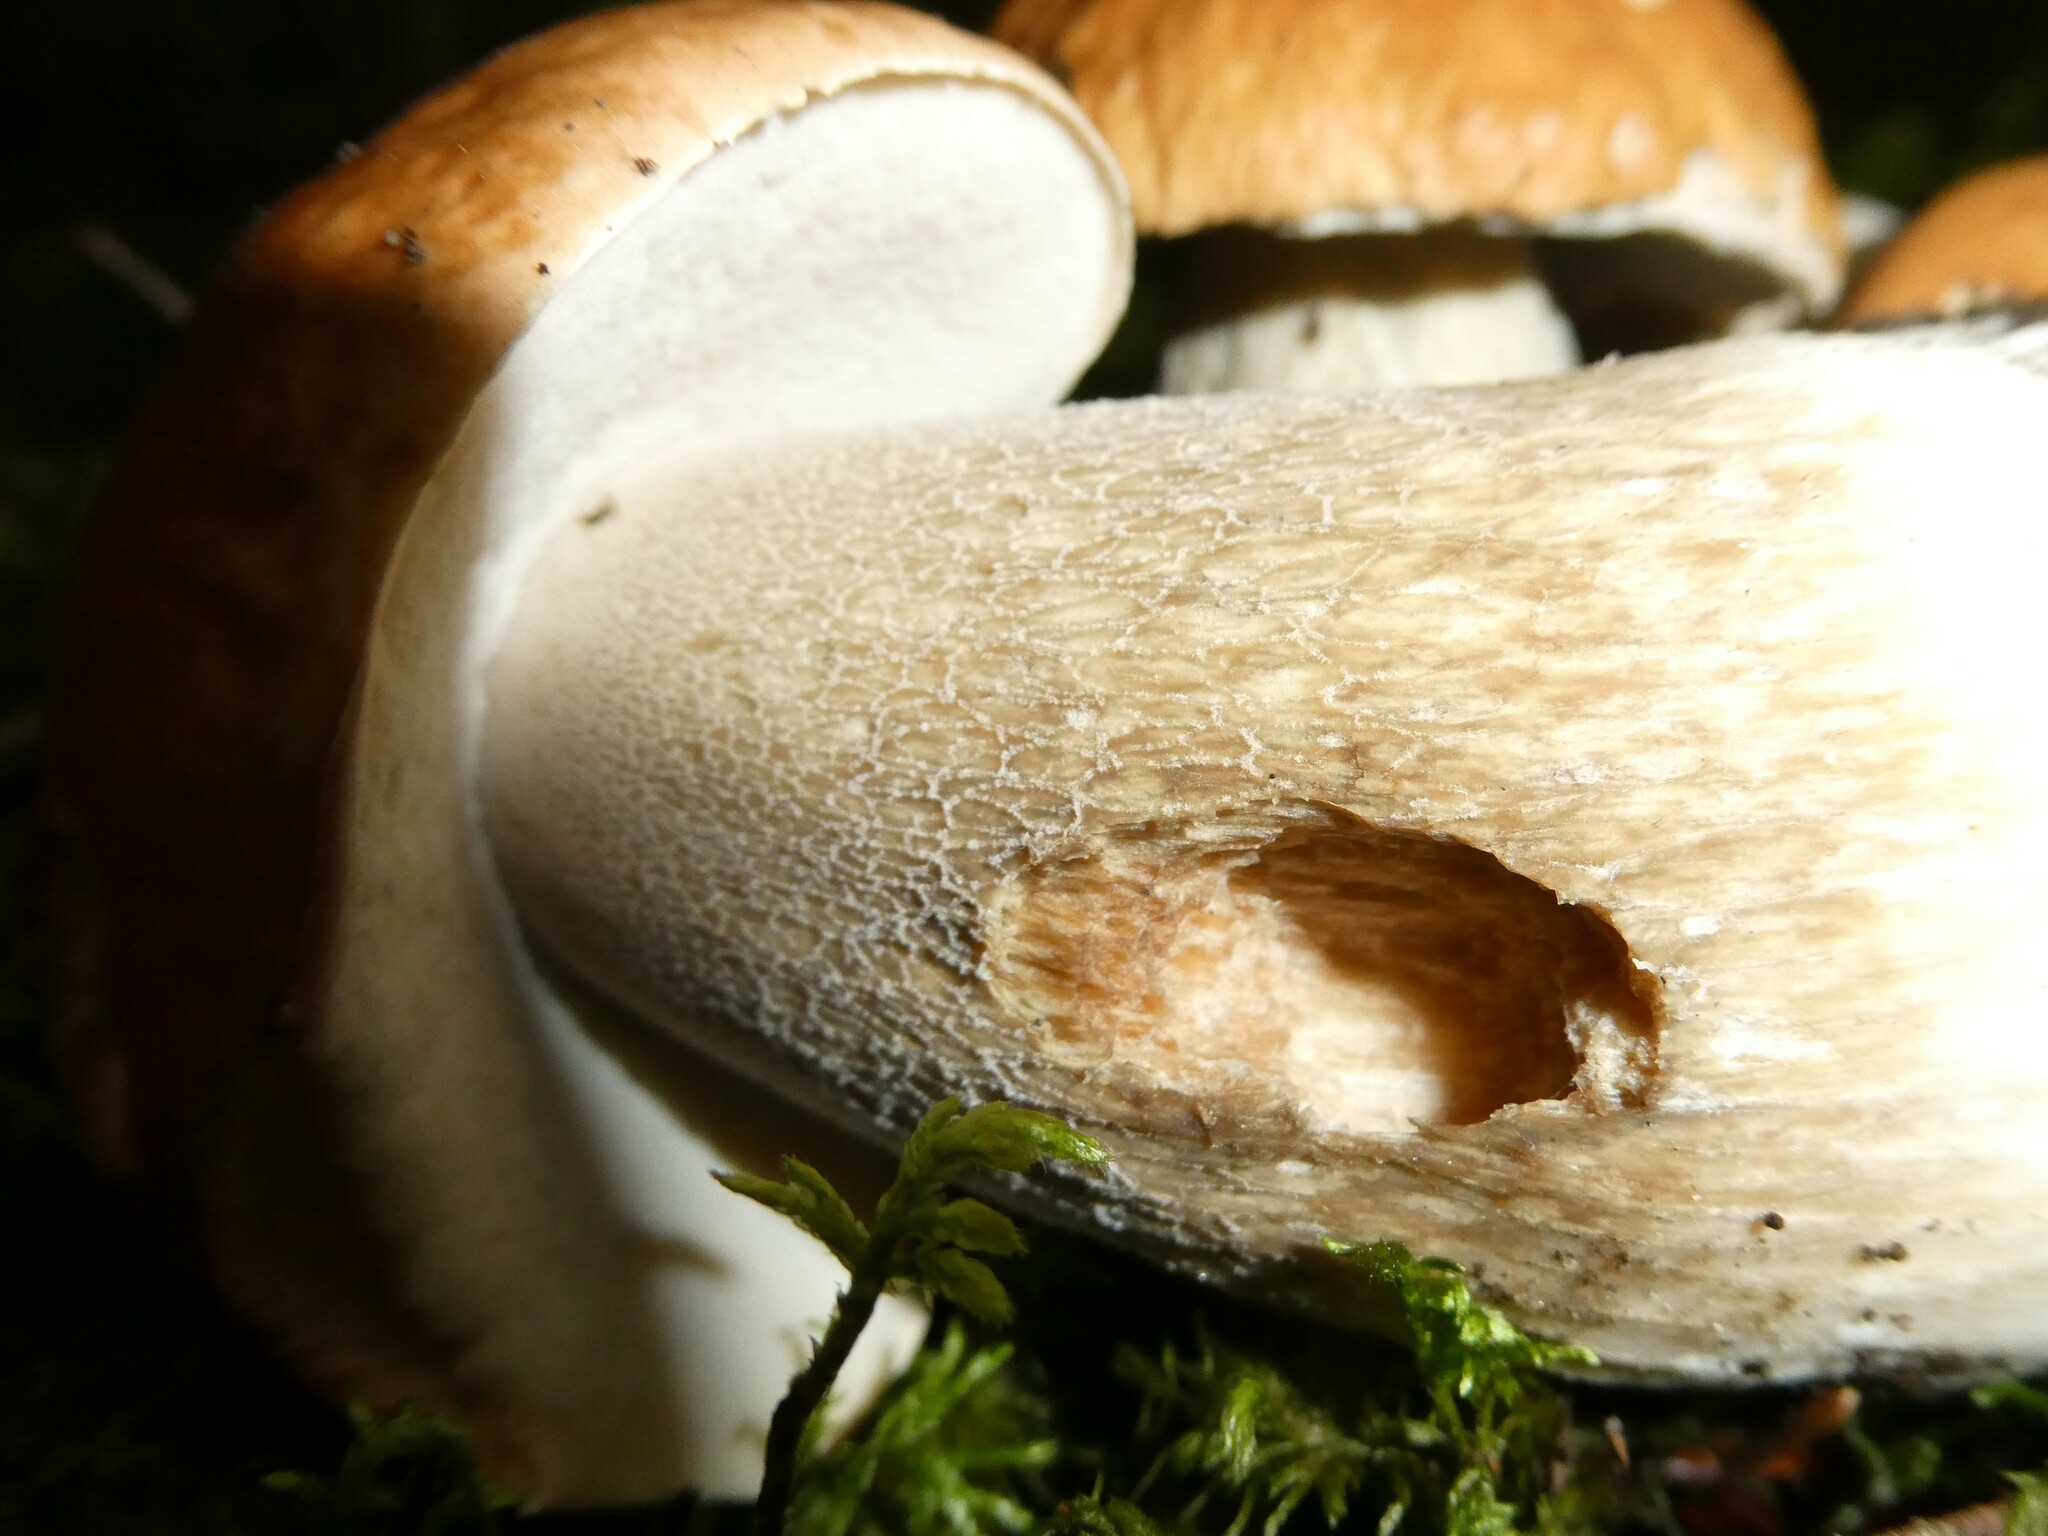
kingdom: Fungi
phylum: Basidiomycota
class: Agaricomycetes
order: Boletales
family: Boletaceae
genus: Boletus
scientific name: Boletus edulis
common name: Cep
